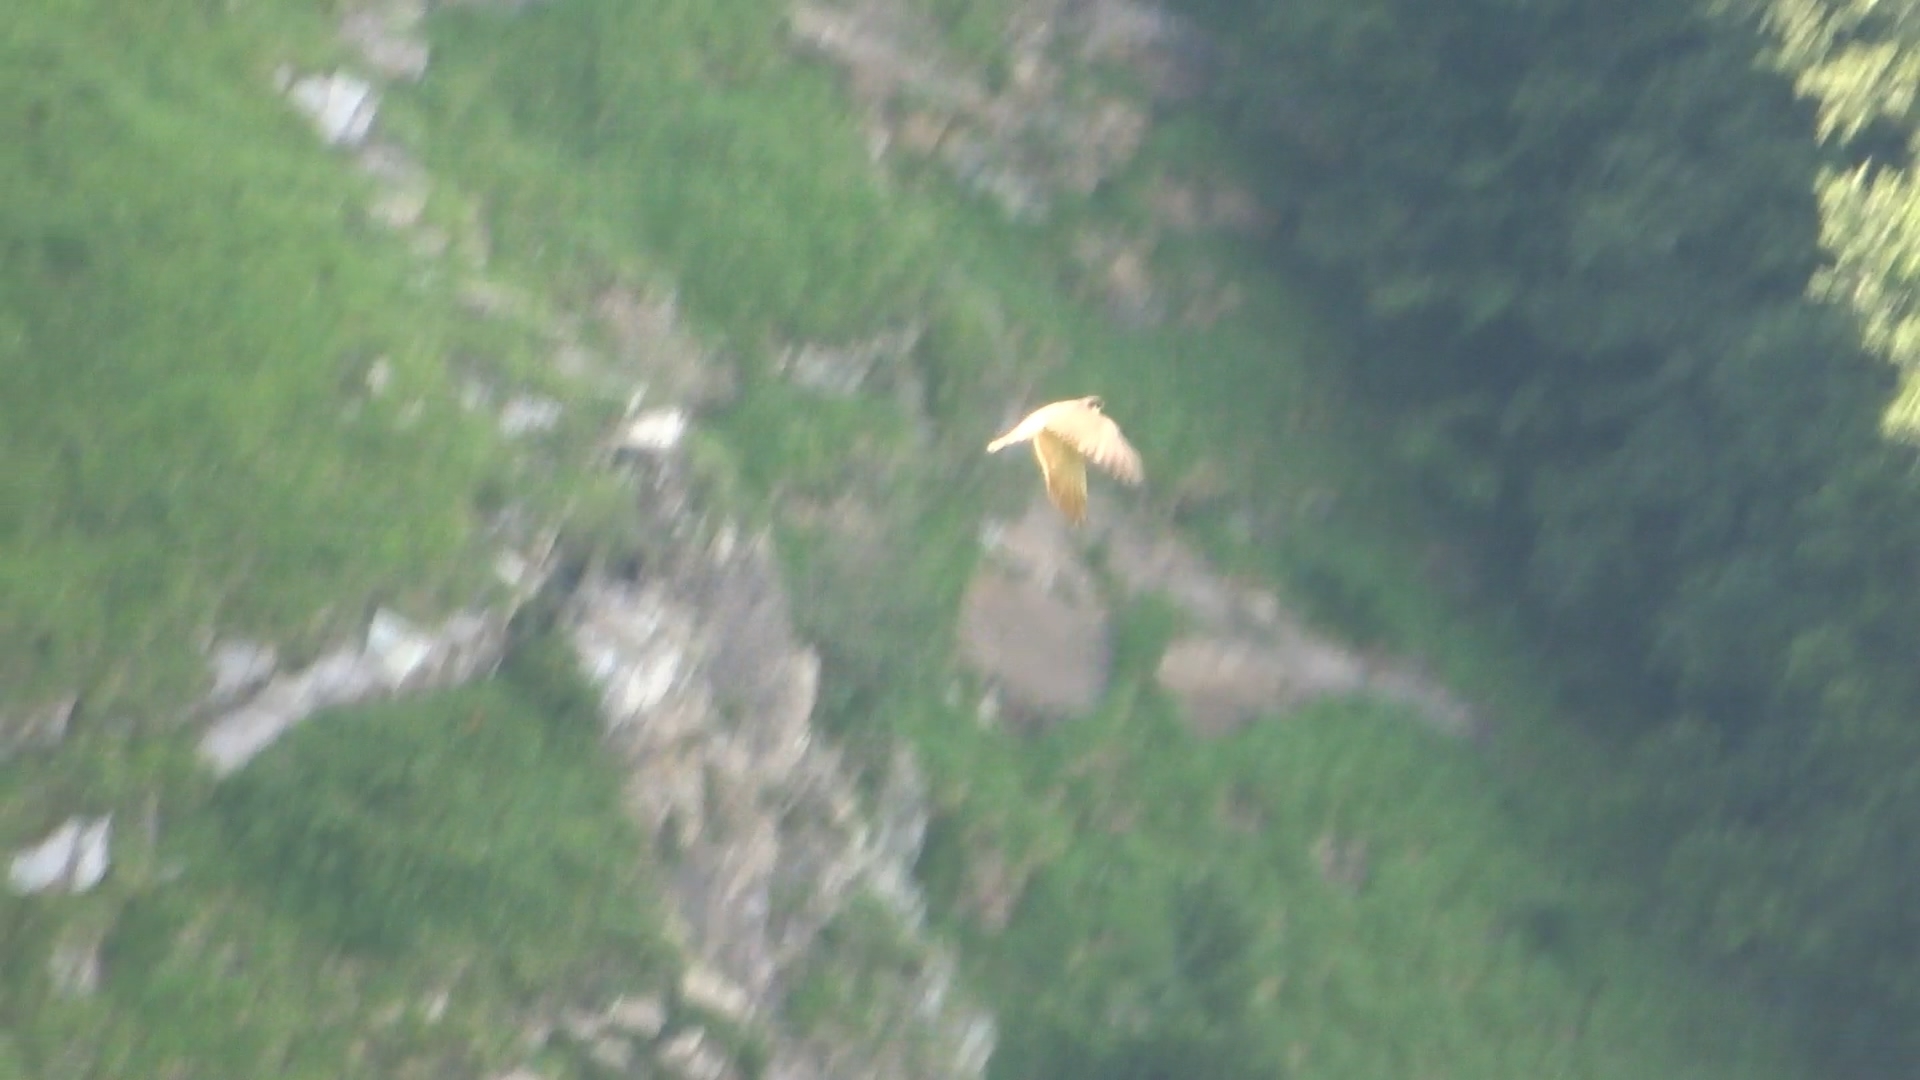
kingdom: Animalia
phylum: Chordata
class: Aves
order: Falconiformes
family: Falconidae
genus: Falco
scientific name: Falco subbuteo
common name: Eurasian hobby
